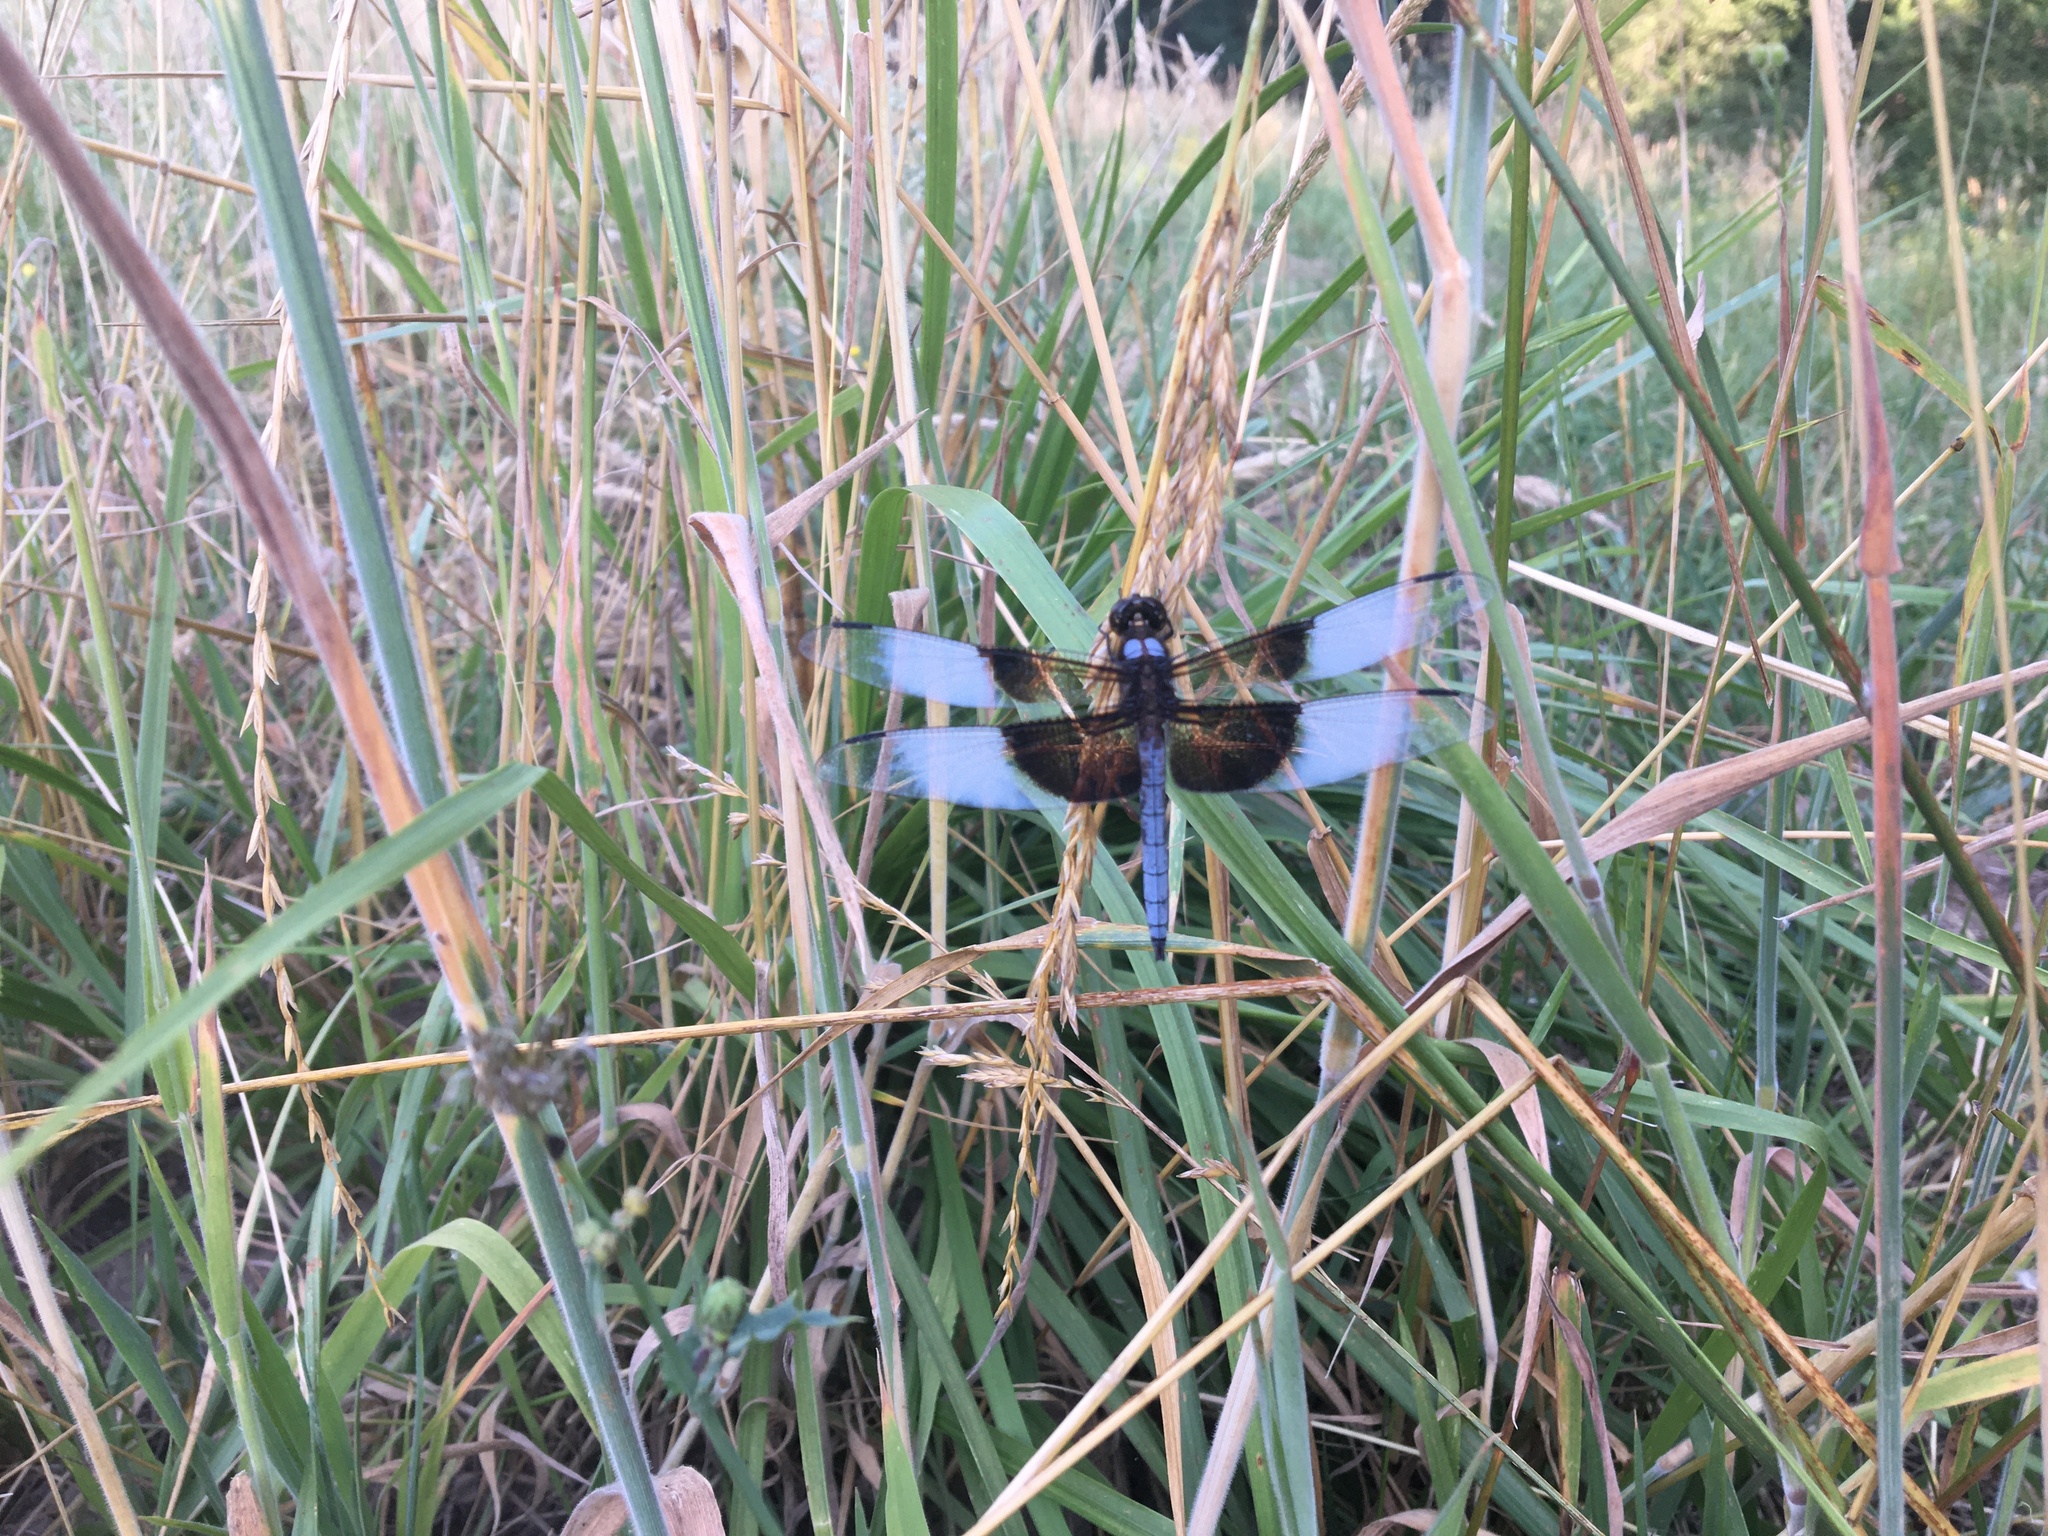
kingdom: Animalia
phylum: Arthropoda
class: Insecta
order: Odonata
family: Libellulidae
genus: Libellula
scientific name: Libellula luctuosa
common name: Widow skimmer
